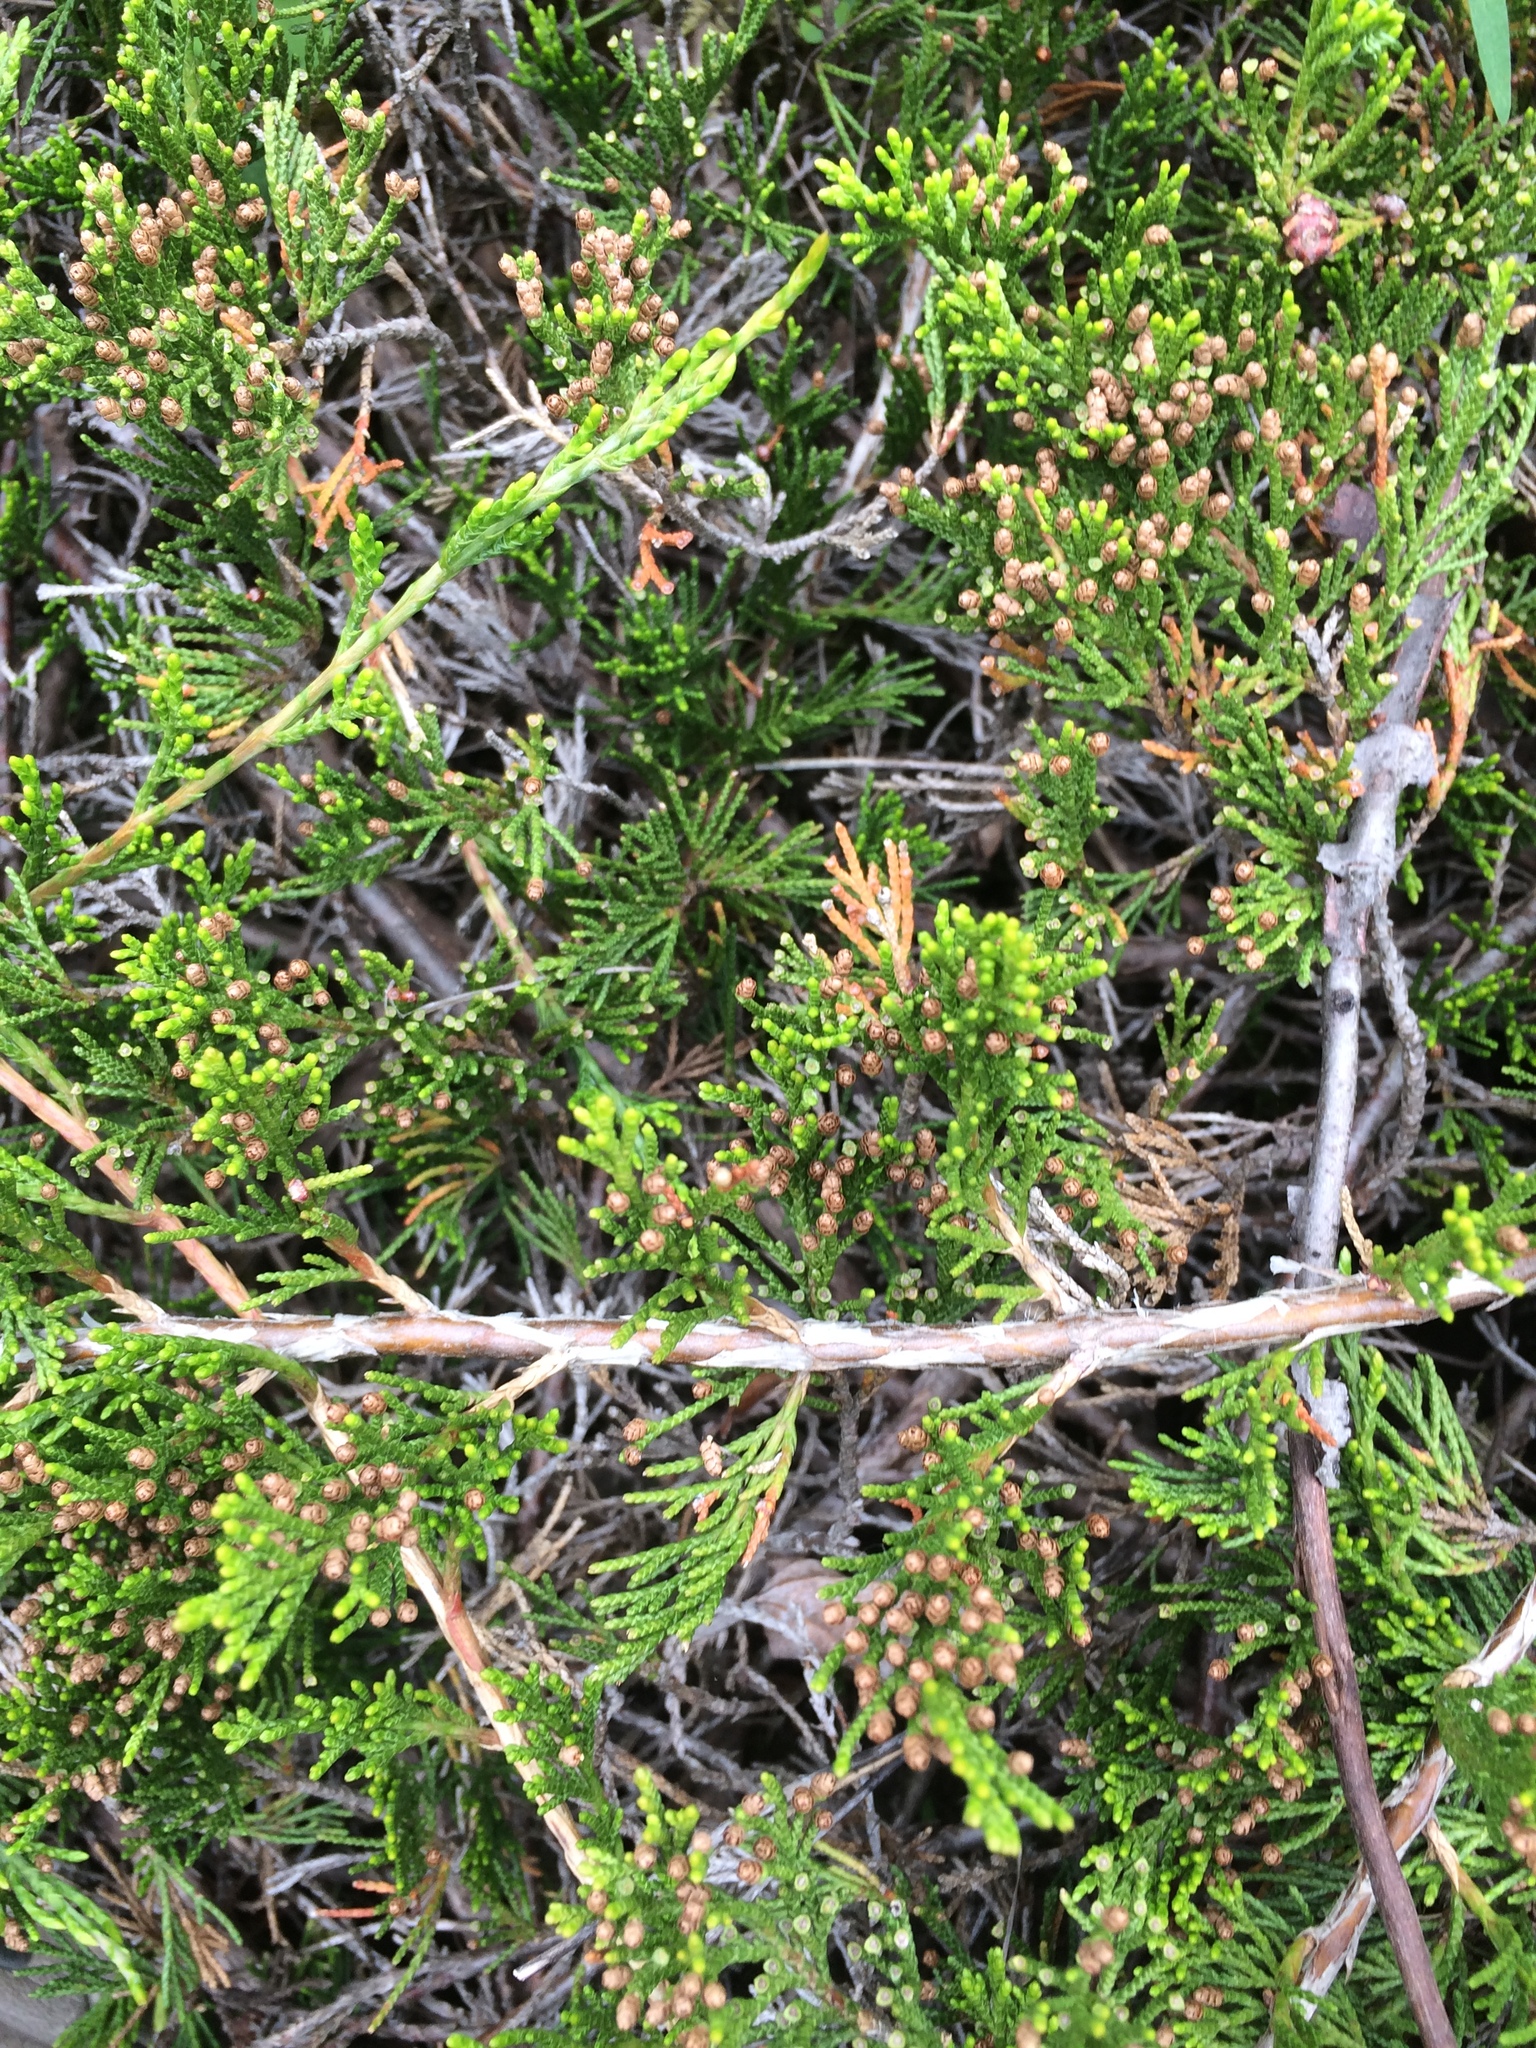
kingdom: Plantae
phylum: Tracheophyta
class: Pinopsida
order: Pinales
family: Cupressaceae
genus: Juniperus
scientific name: Juniperus horizontalis
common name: Creeping juniper
